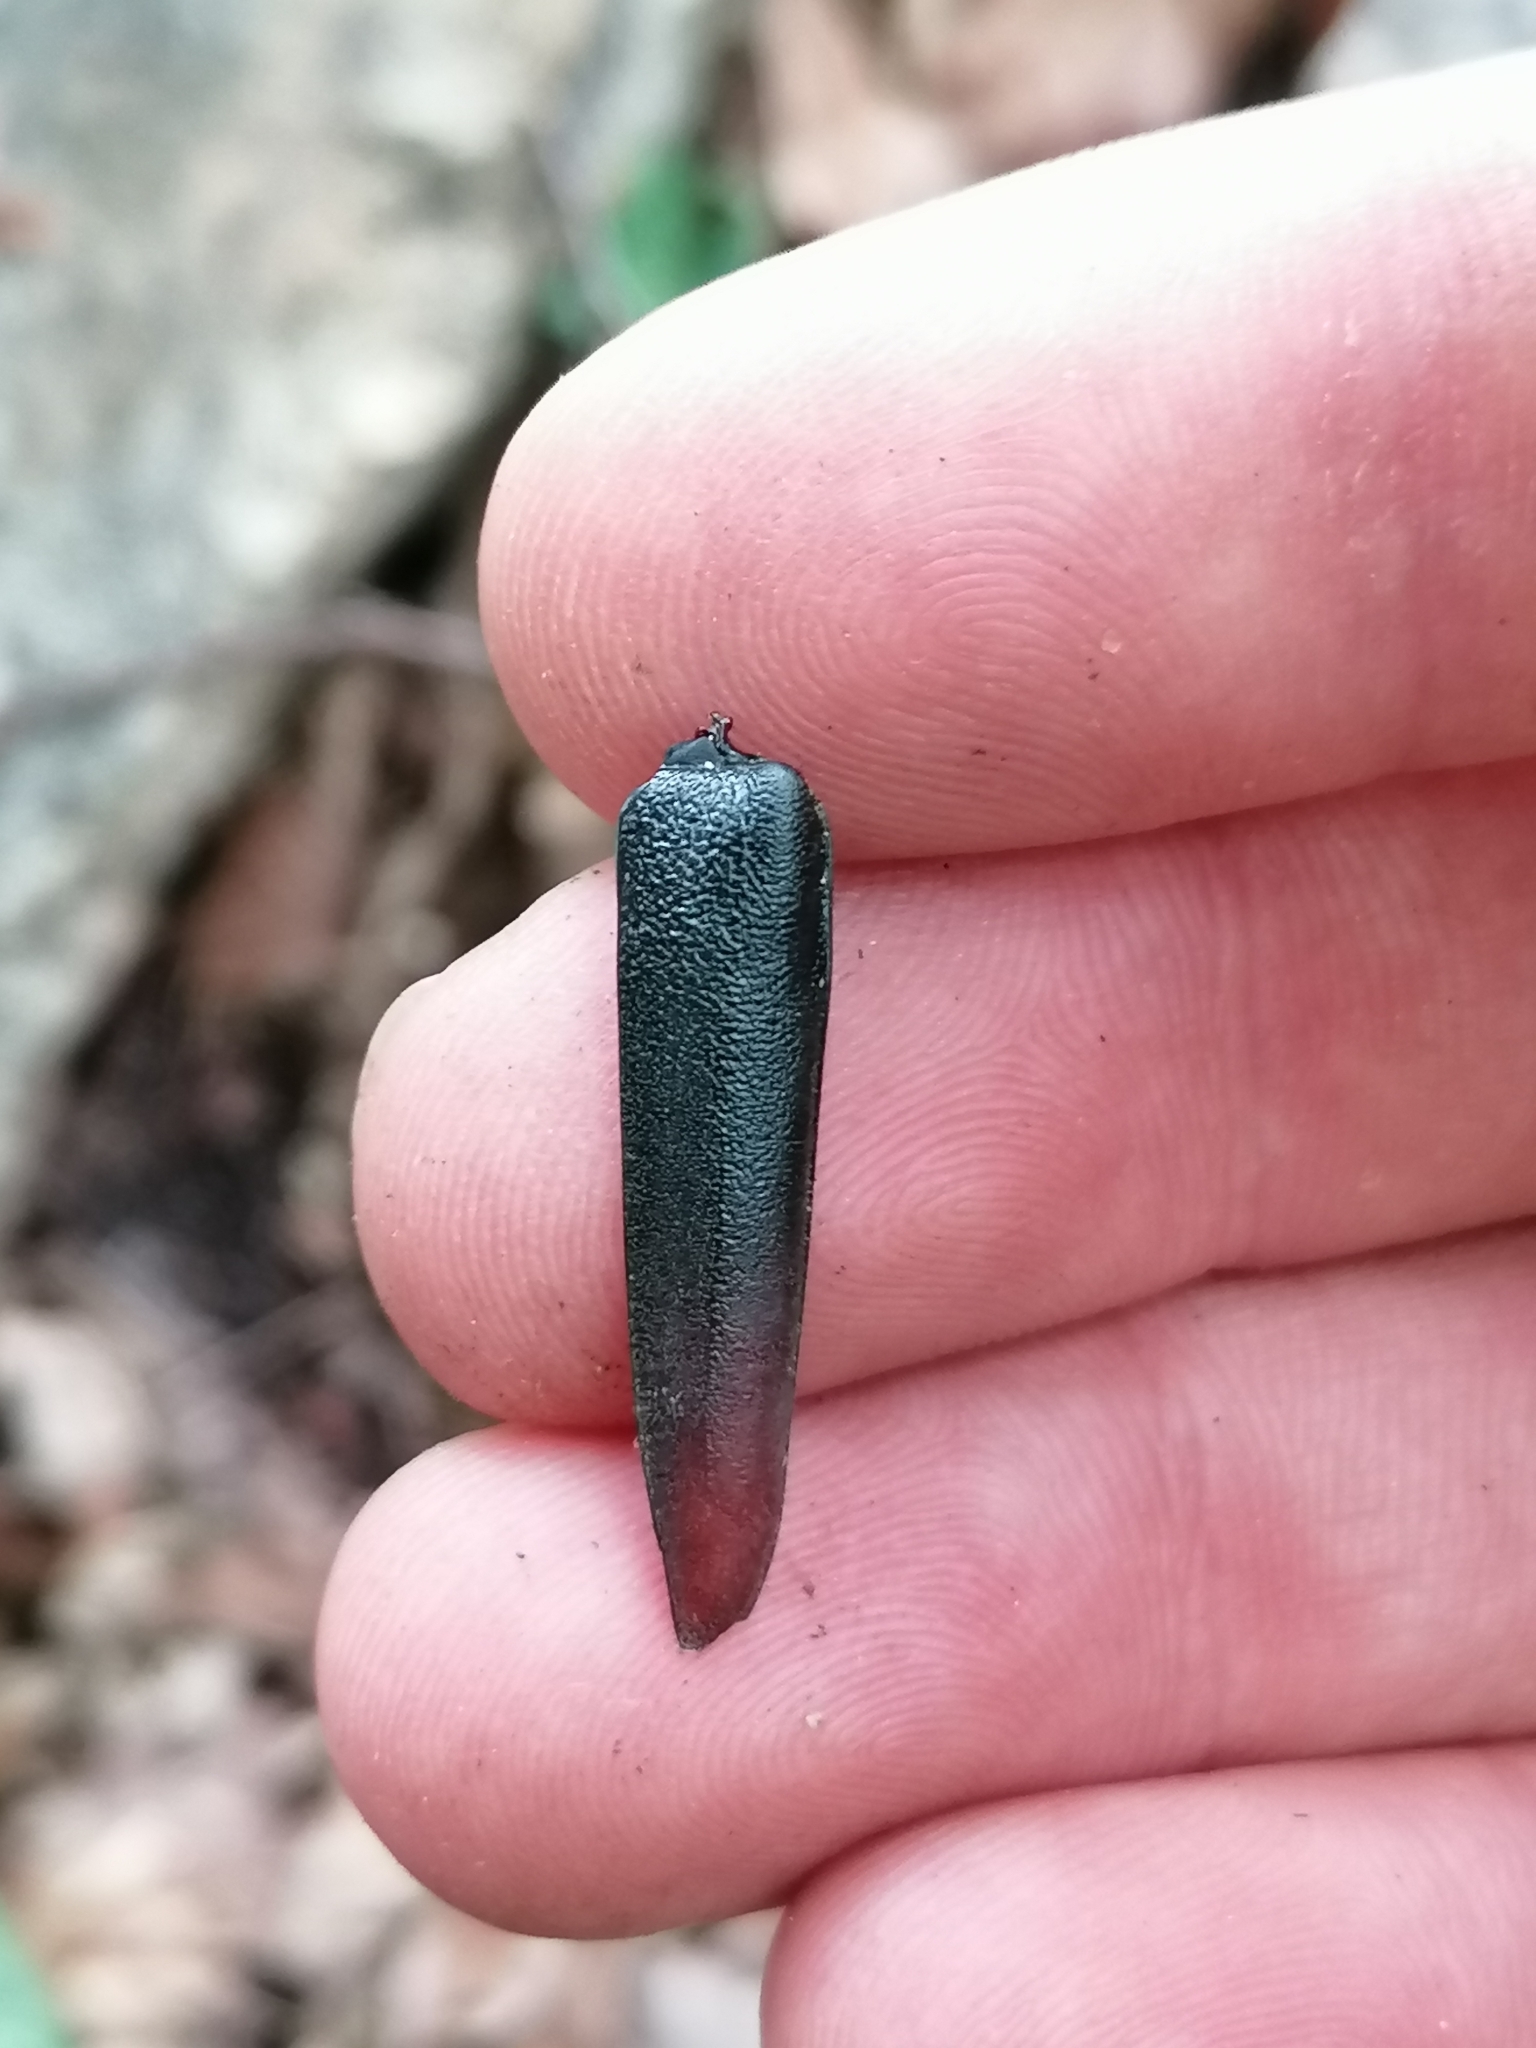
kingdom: Animalia
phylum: Arthropoda
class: Insecta
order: Coleoptera
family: Cerambycidae
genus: Cerambyx
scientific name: Cerambyx cerdo
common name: Cerambyx longicorn
